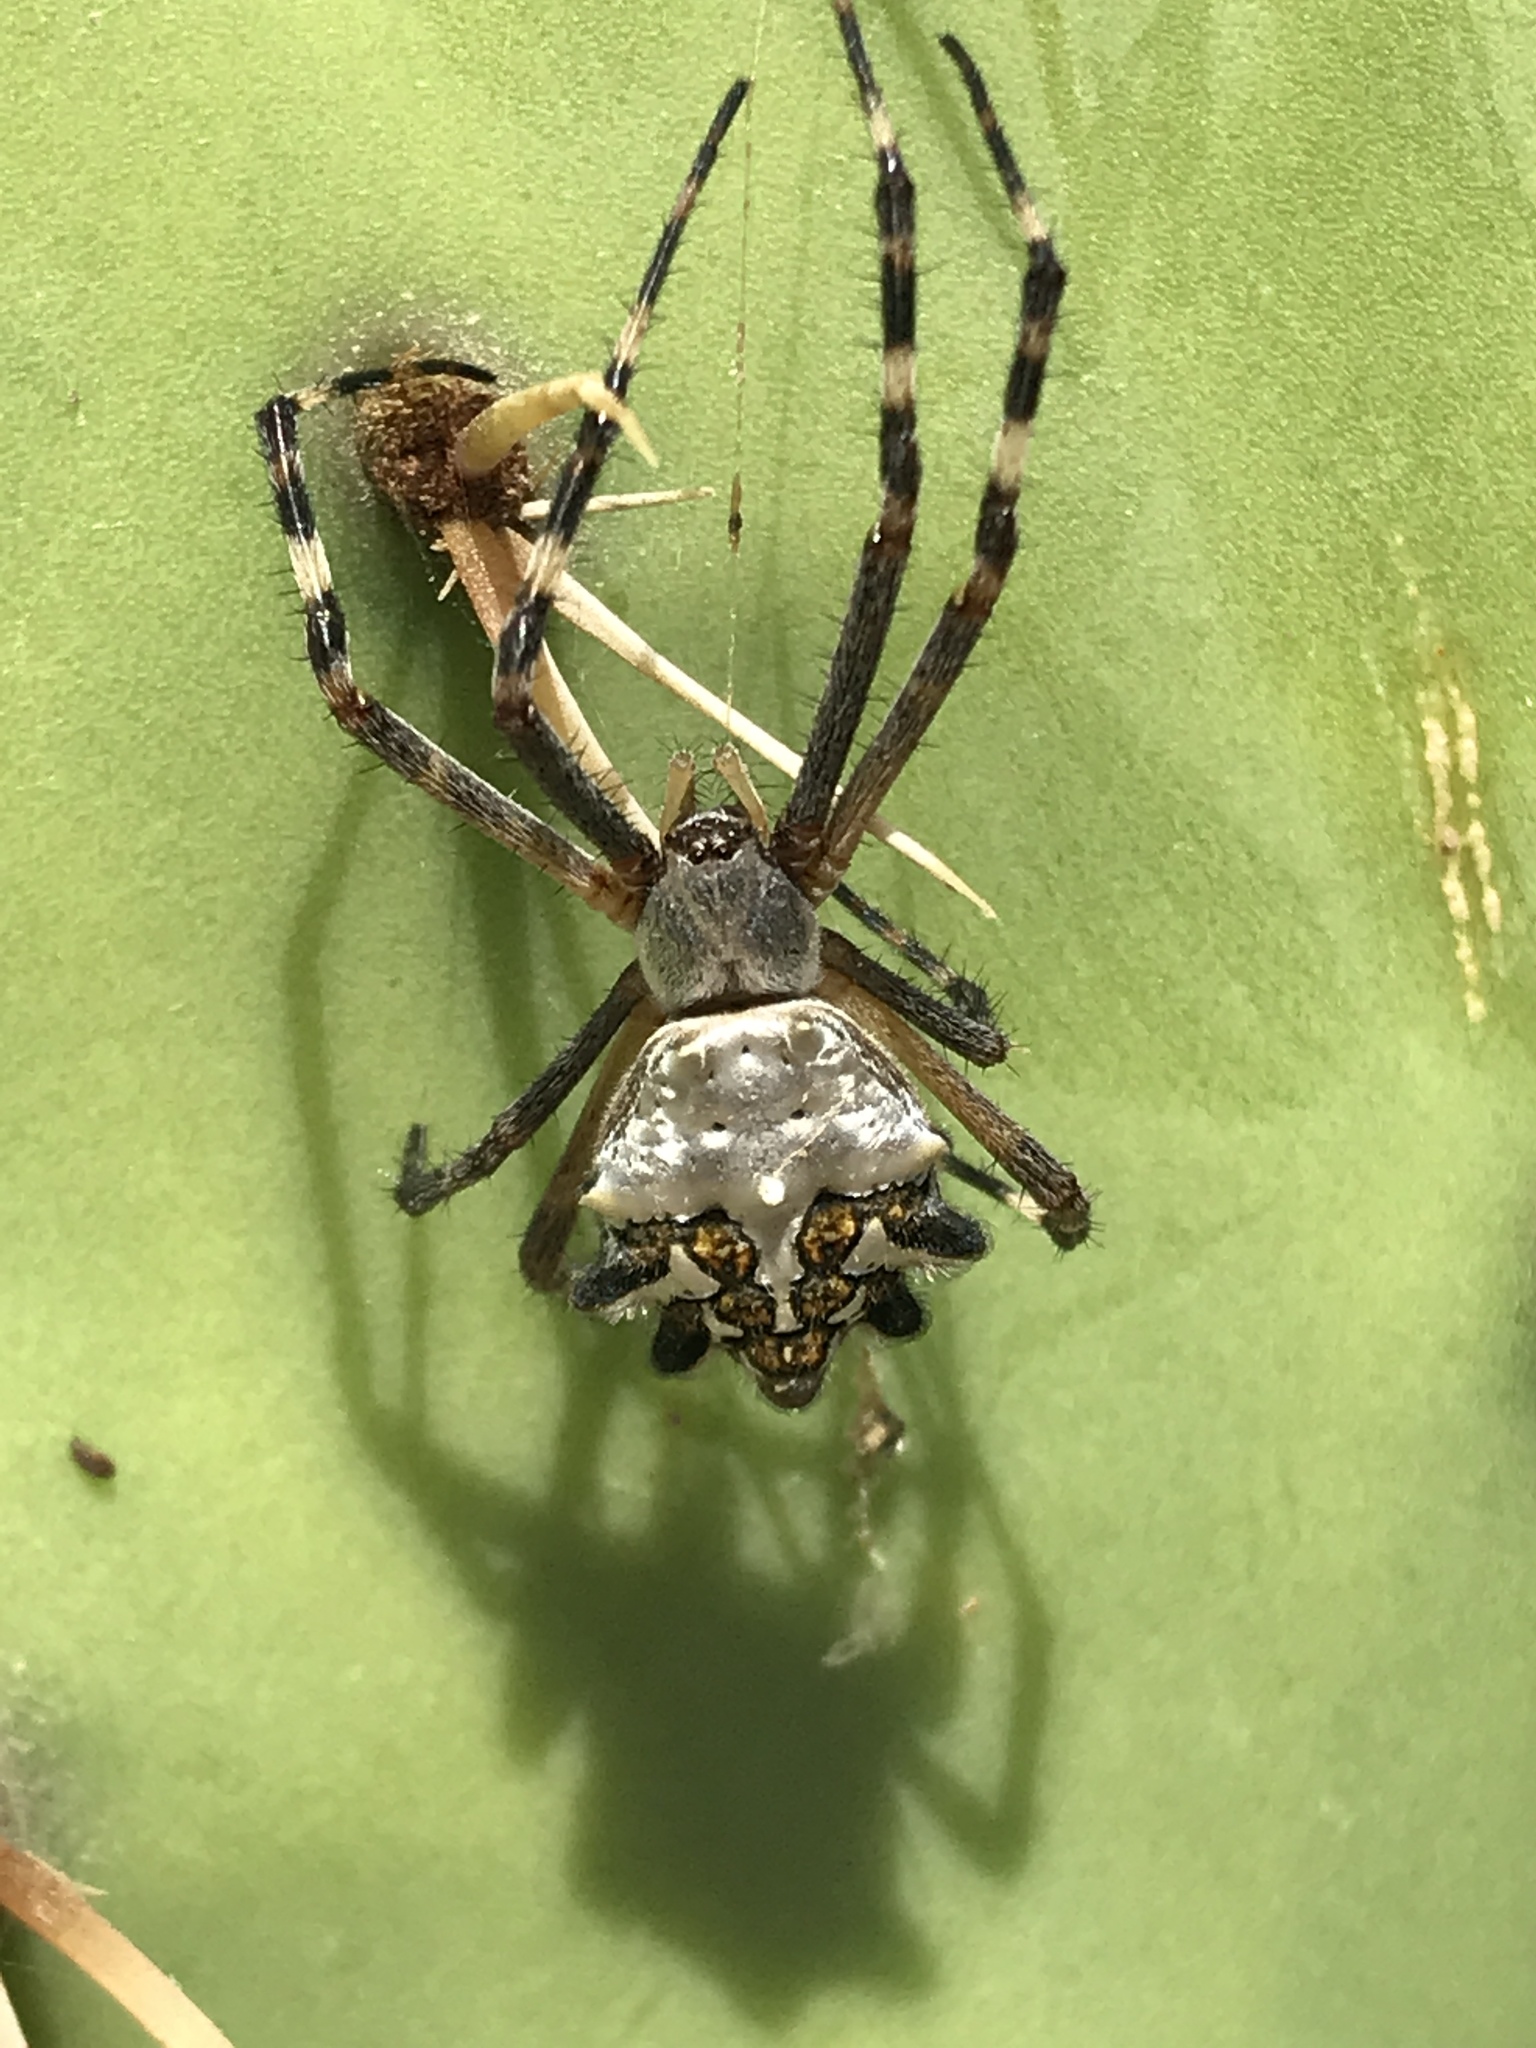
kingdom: Animalia
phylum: Arthropoda
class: Arachnida
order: Araneae
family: Araneidae
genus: Argiope
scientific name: Argiope argentata
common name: Orb weavers
